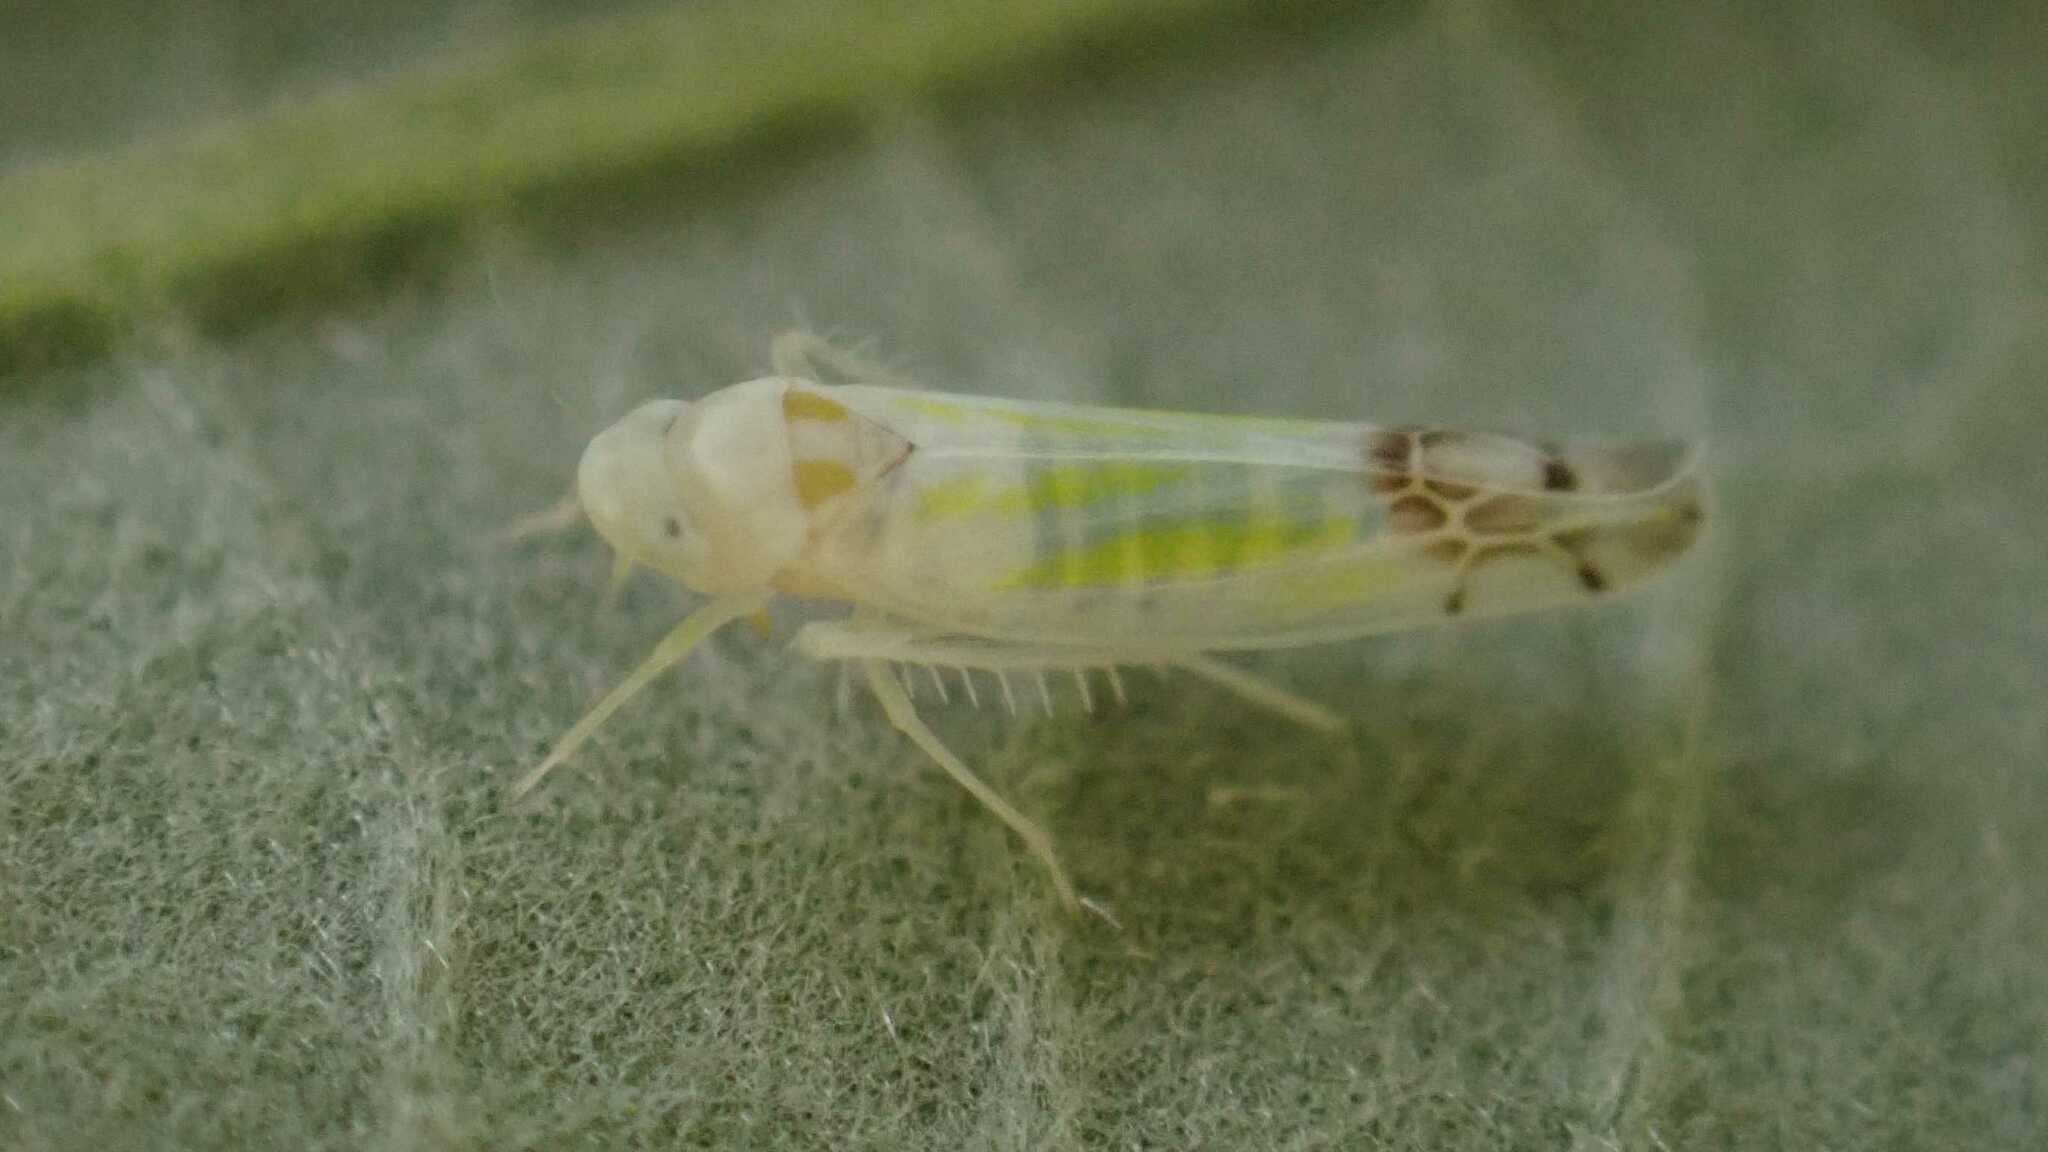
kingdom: Animalia
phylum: Arthropoda
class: Insecta
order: Hemiptera
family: Cicadellidae
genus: Ribautiana
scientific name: Ribautiana tenerrima
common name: Bramble leafhopper
